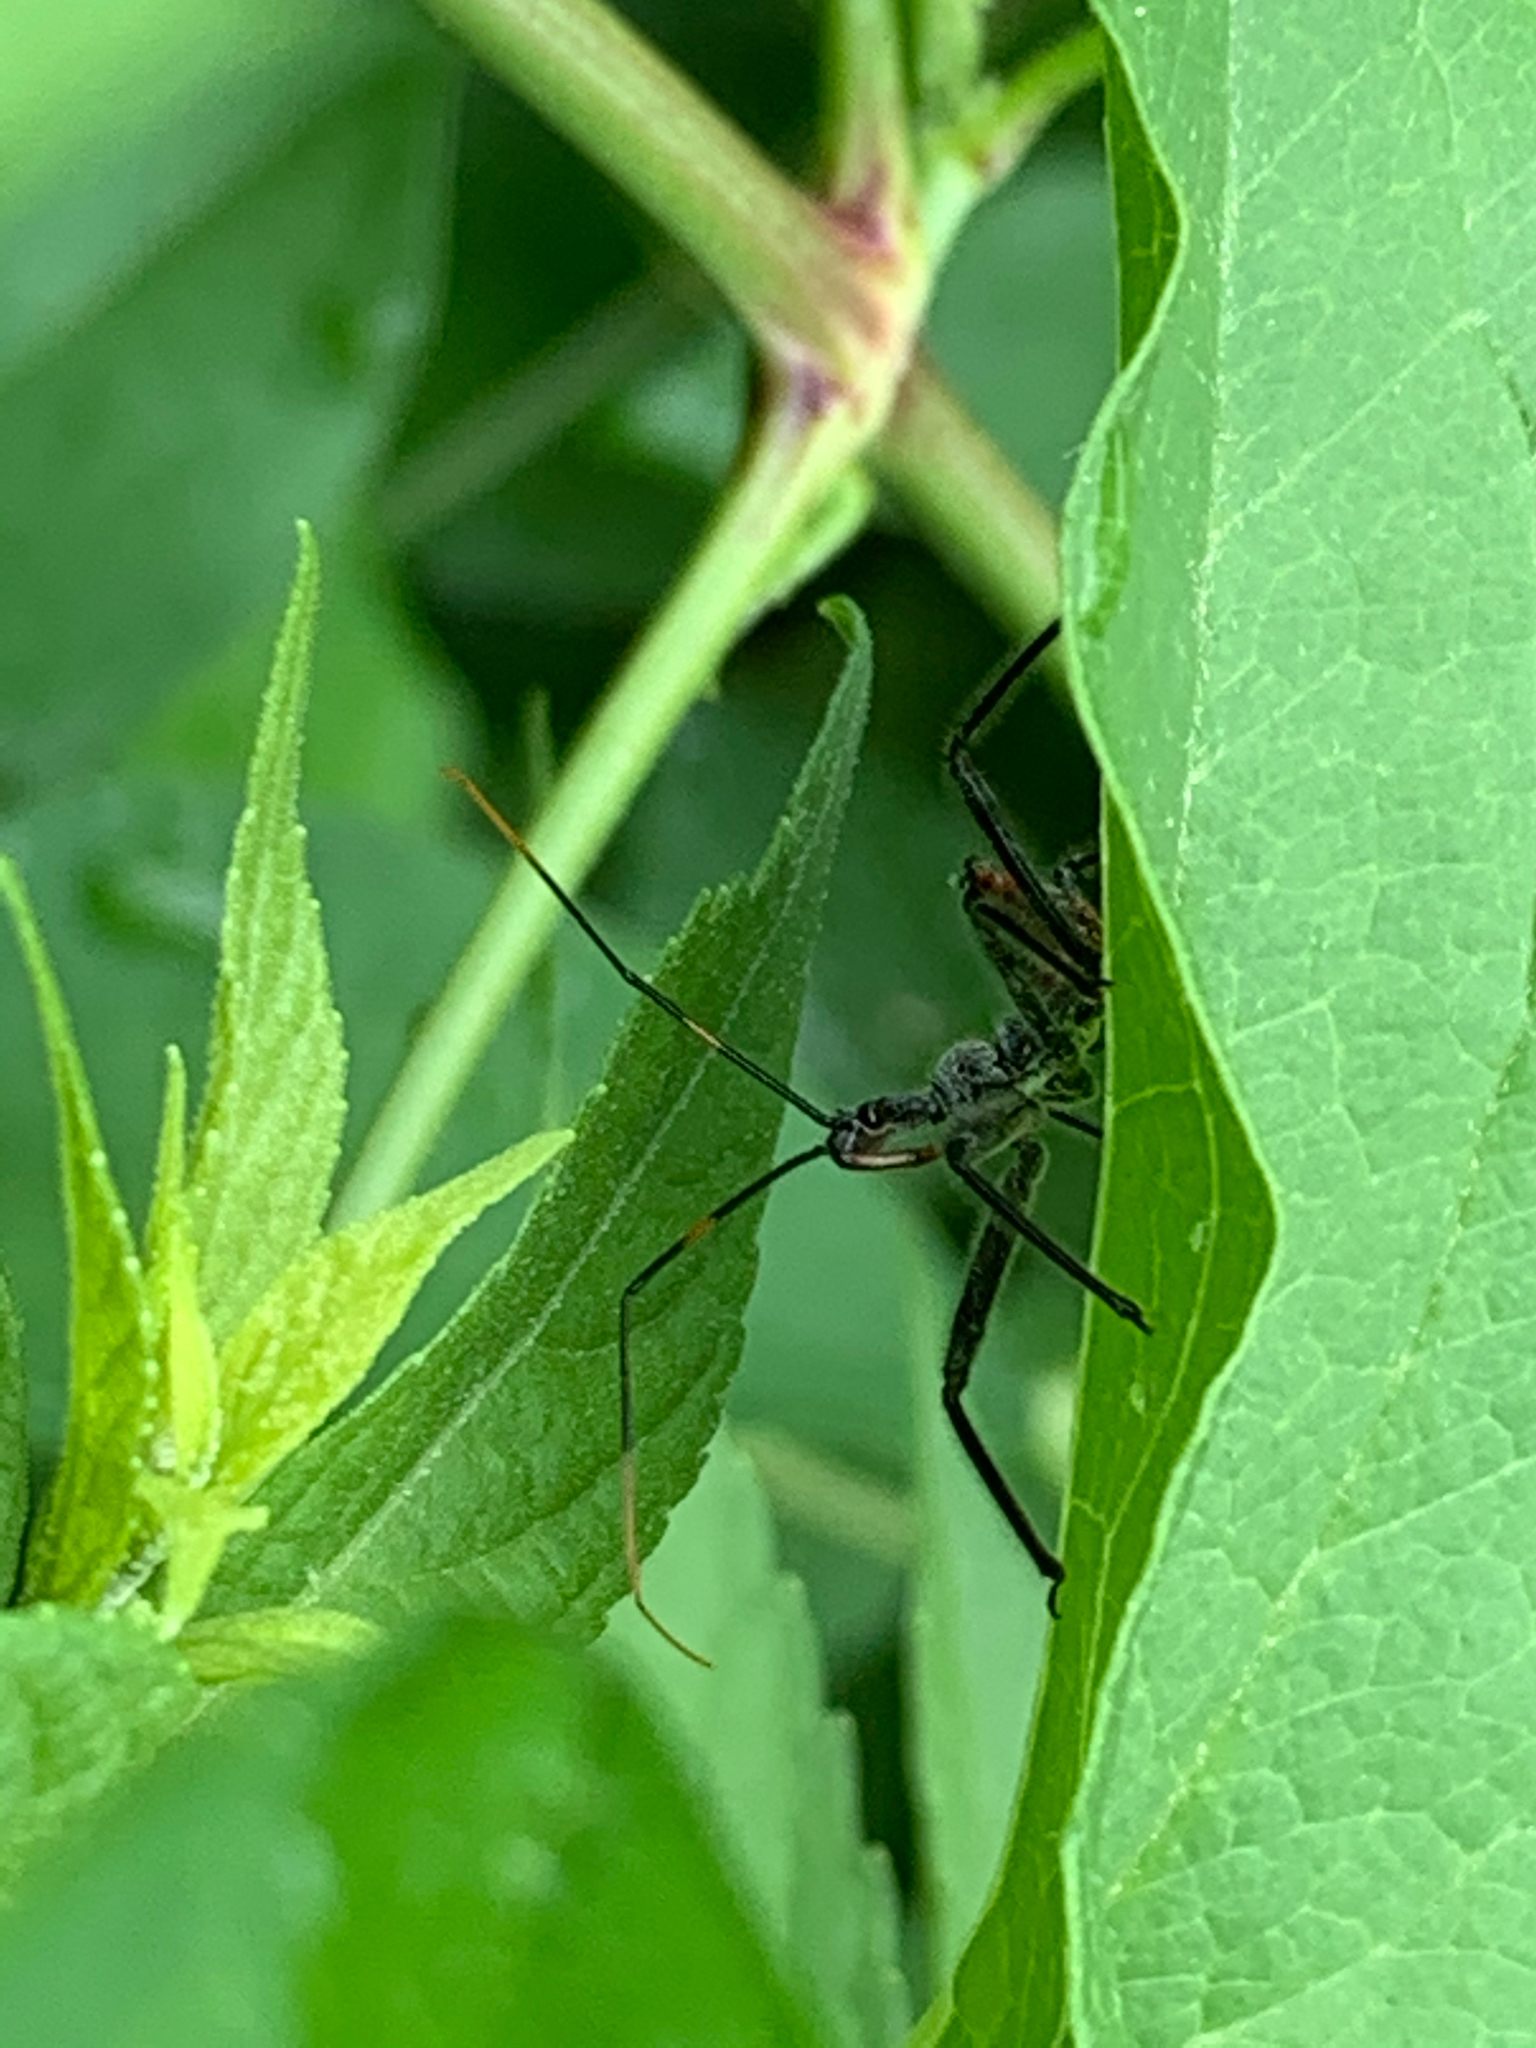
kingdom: Animalia
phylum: Arthropoda
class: Insecta
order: Hemiptera
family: Reduviidae
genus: Arilus
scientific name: Arilus cristatus
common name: North american wheel bug
